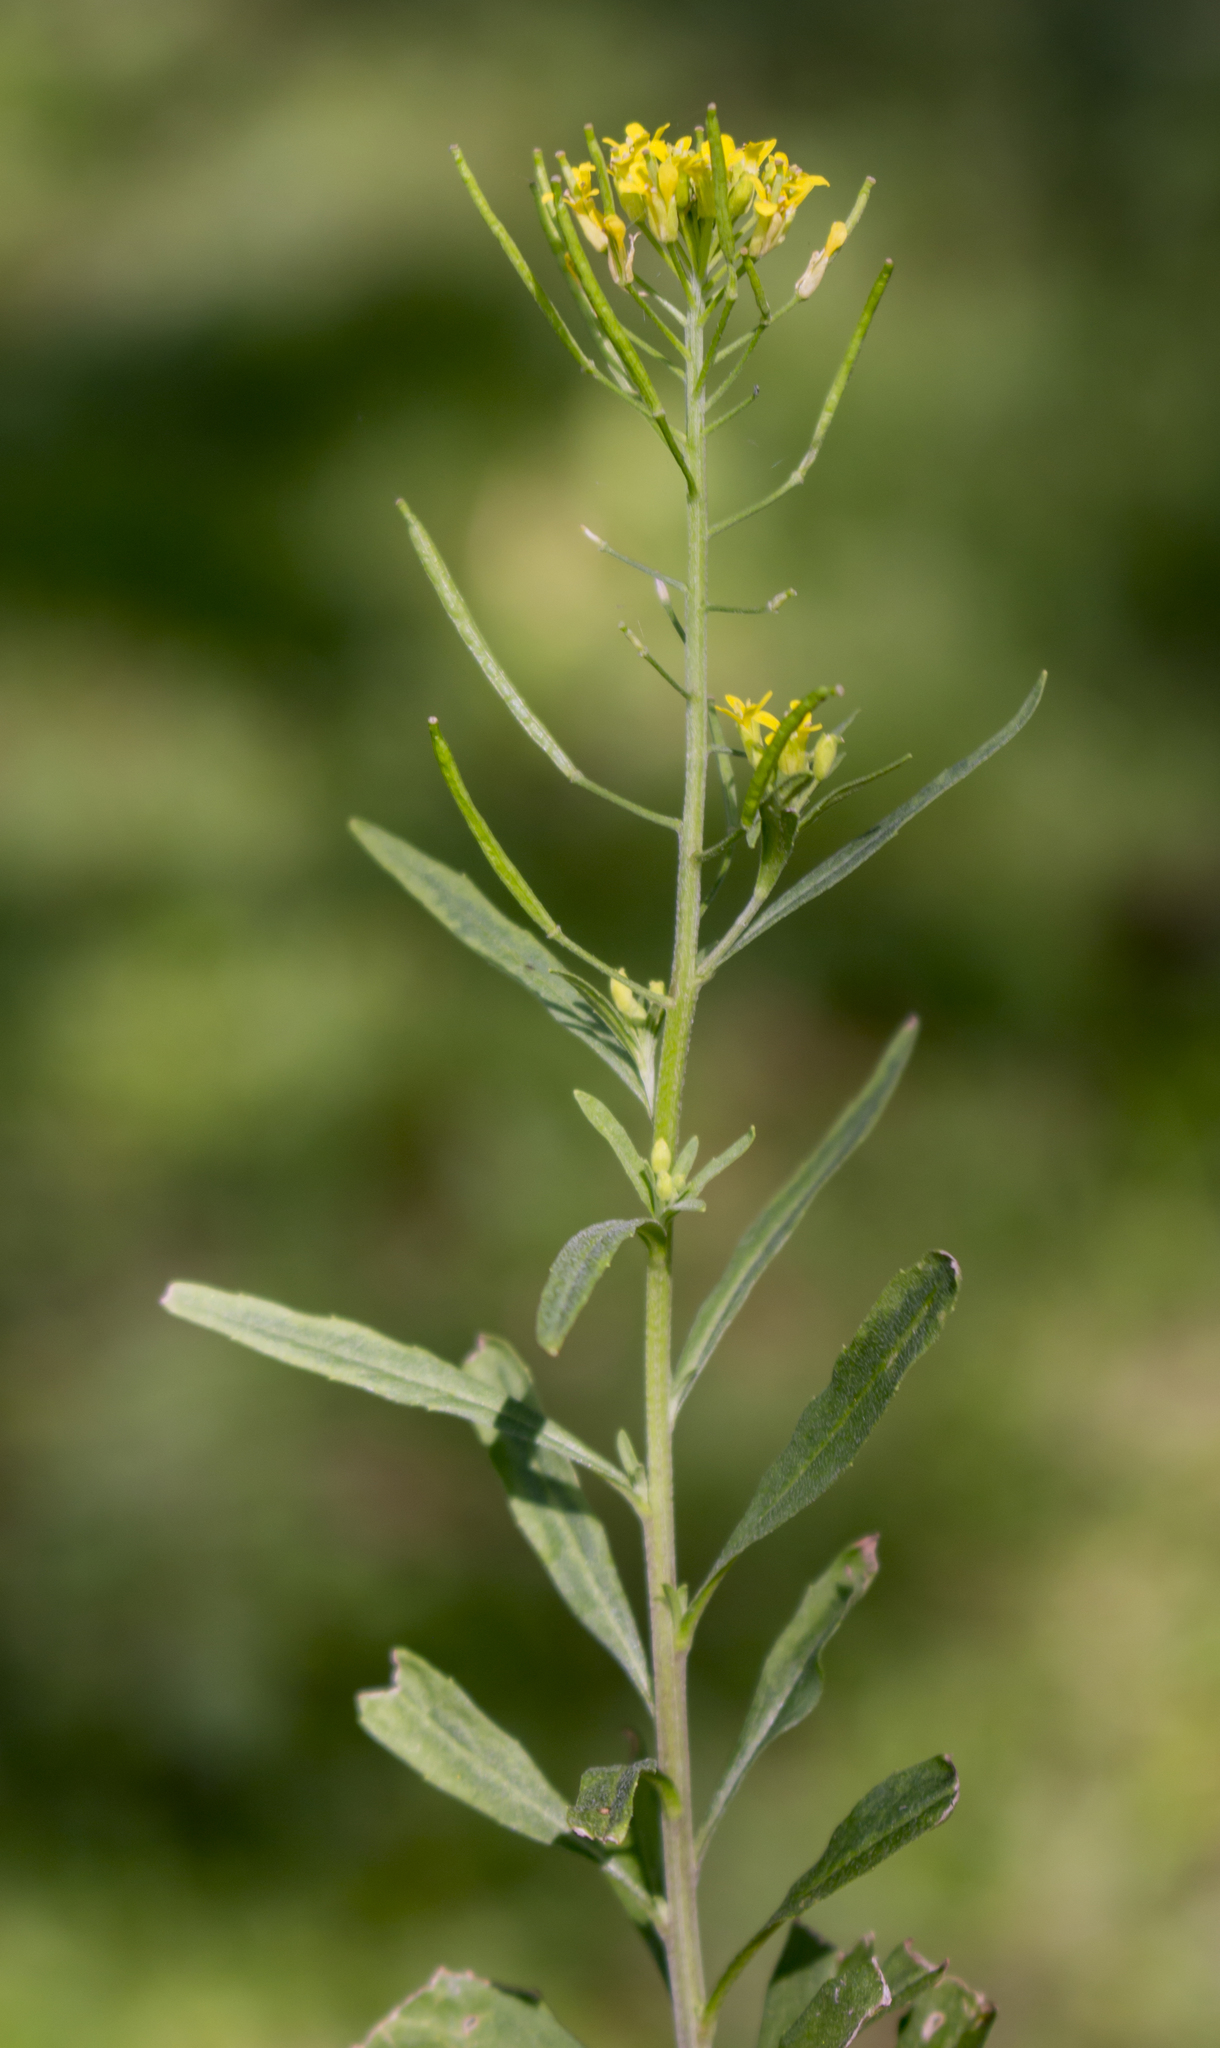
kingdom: Plantae
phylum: Tracheophyta
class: Magnoliopsida
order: Brassicales
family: Brassicaceae
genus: Erysimum
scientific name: Erysimum cheiranthoides
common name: Treacle mustard
